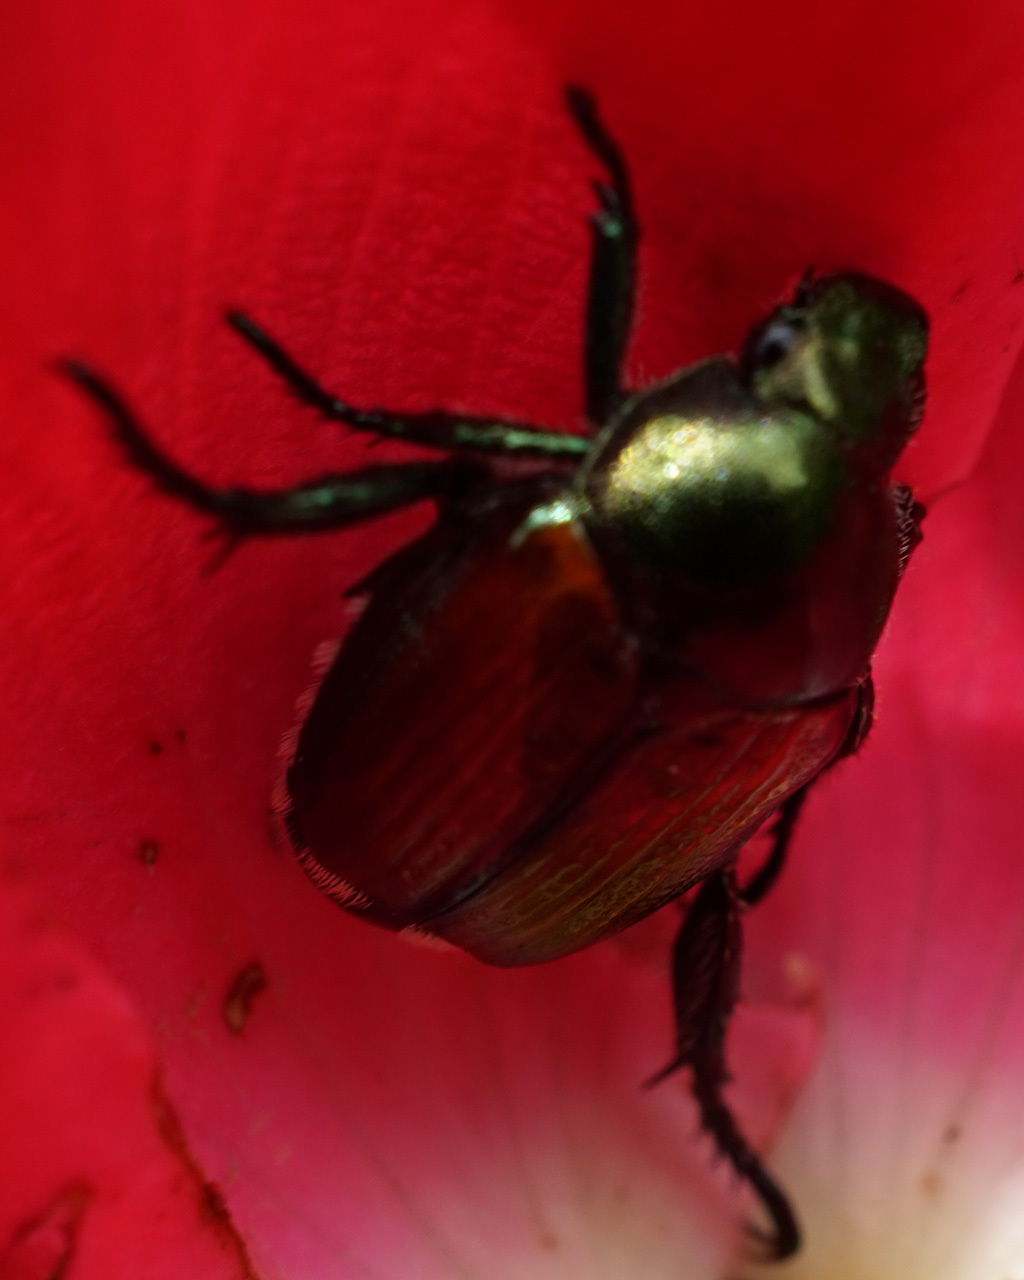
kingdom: Animalia
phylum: Arthropoda
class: Insecta
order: Coleoptera
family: Scarabaeidae
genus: Popillia
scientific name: Popillia japonica
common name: Japanese beetle
